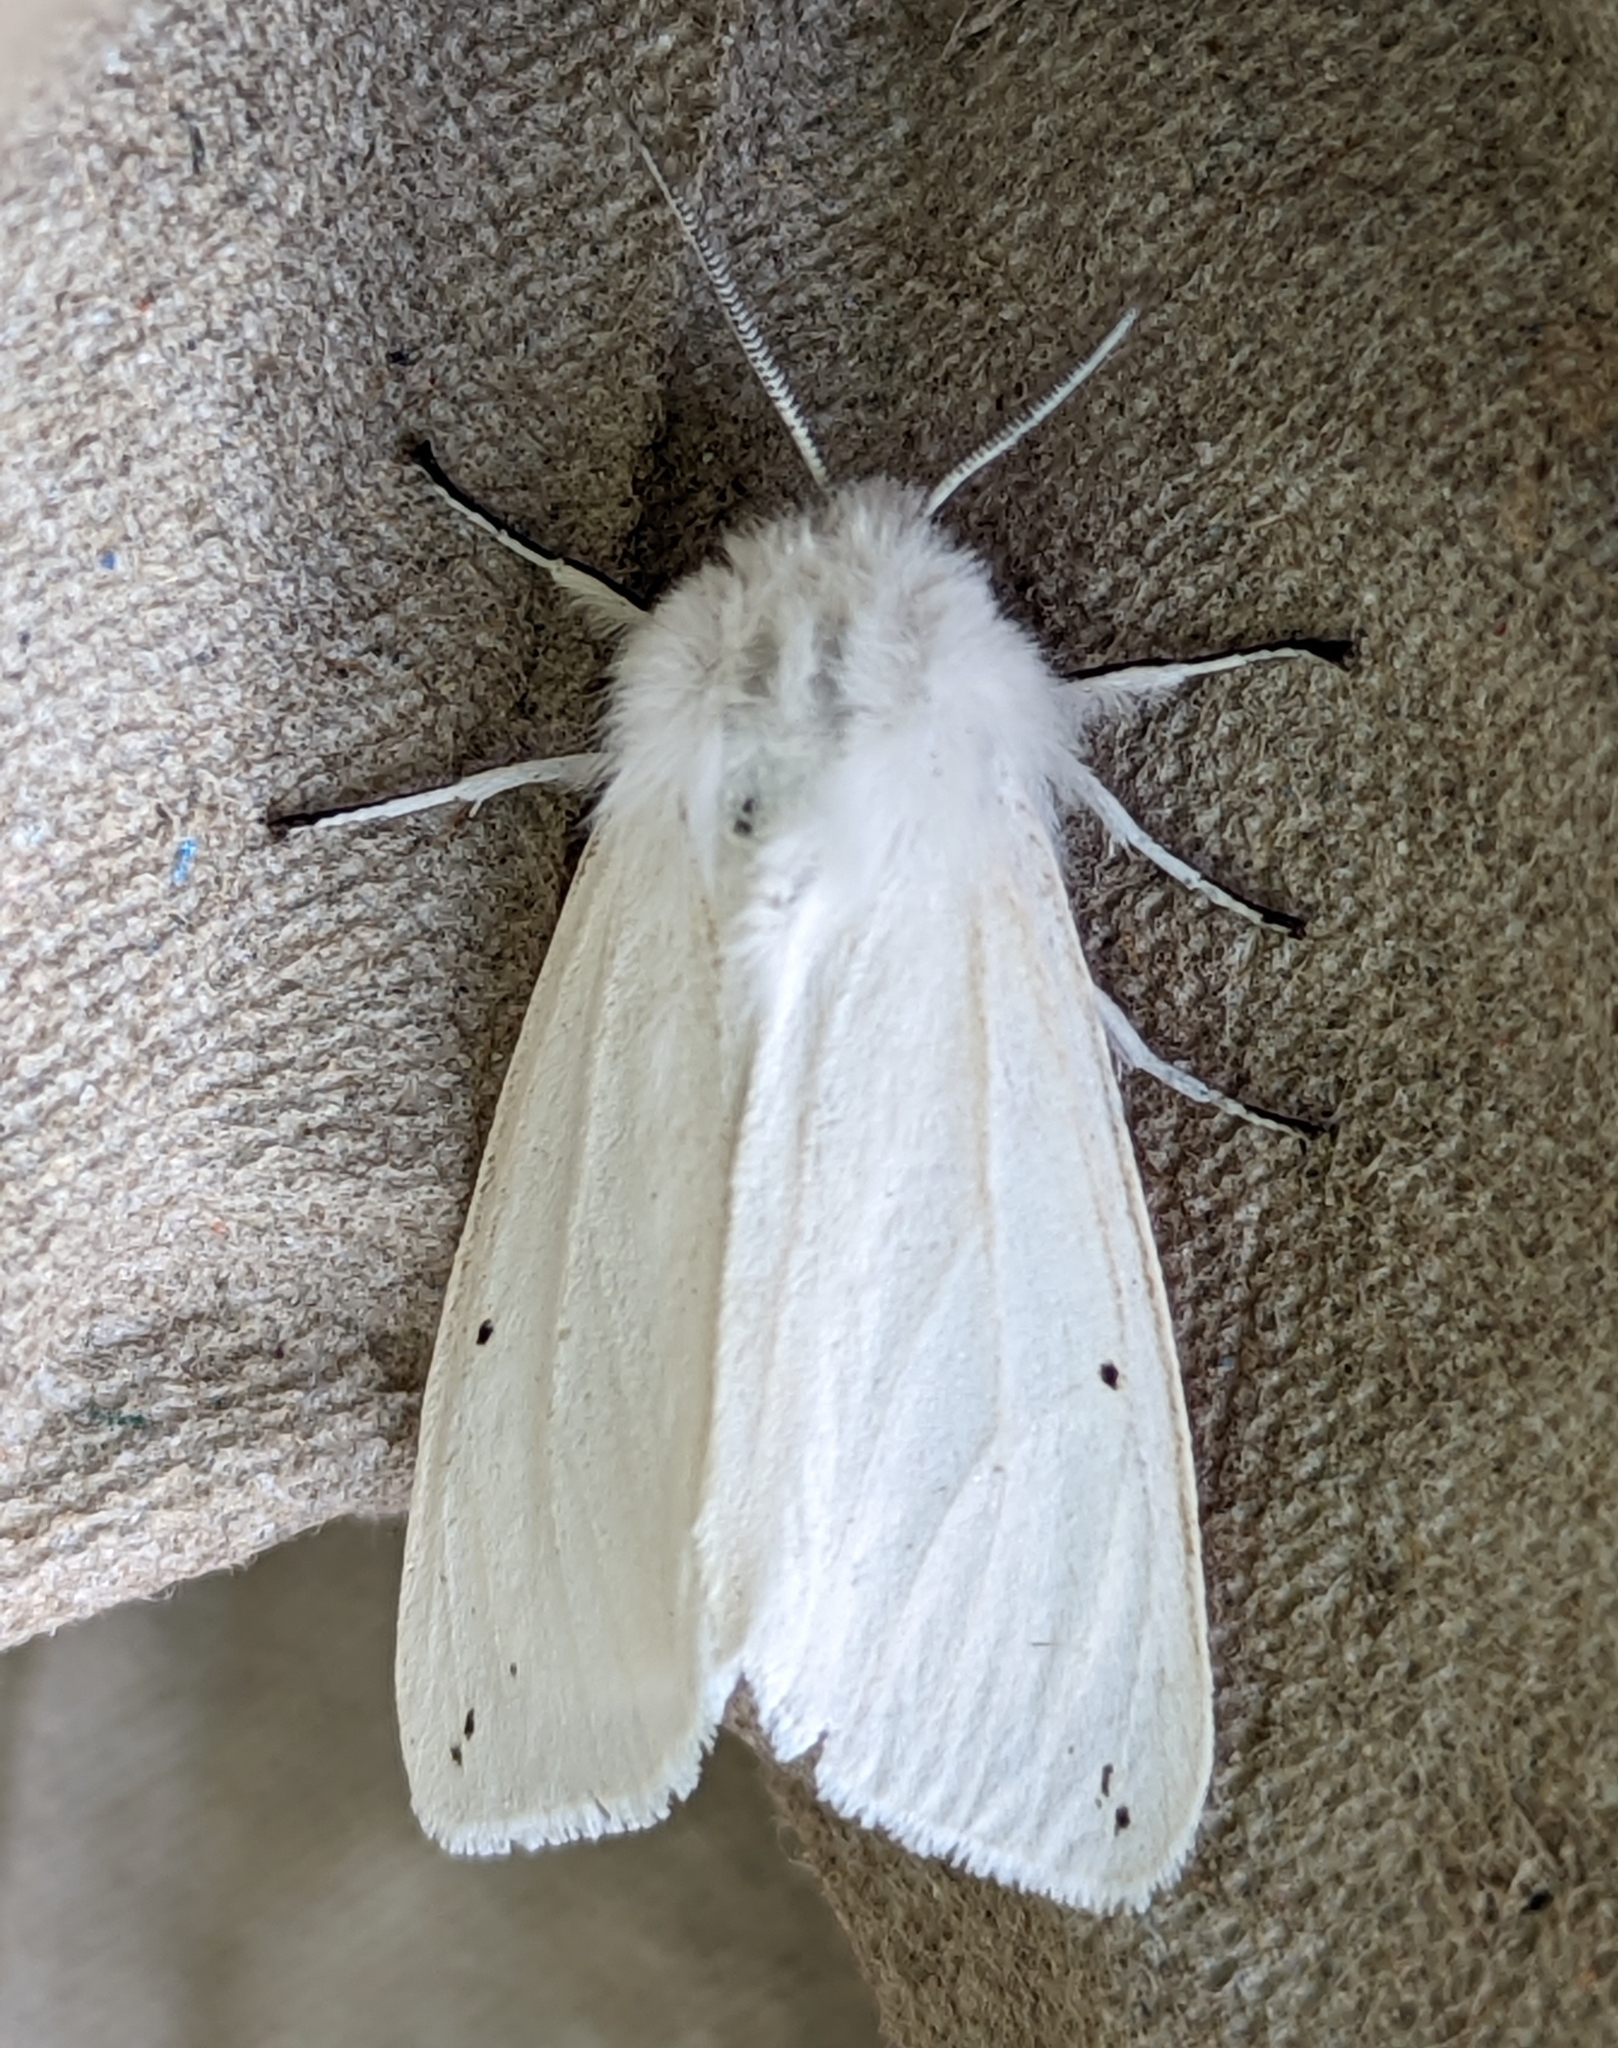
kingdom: Animalia
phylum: Arthropoda
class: Insecta
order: Lepidoptera
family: Erebidae
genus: Spilosoma
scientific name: Spilosoma urticae
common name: Water ermine
